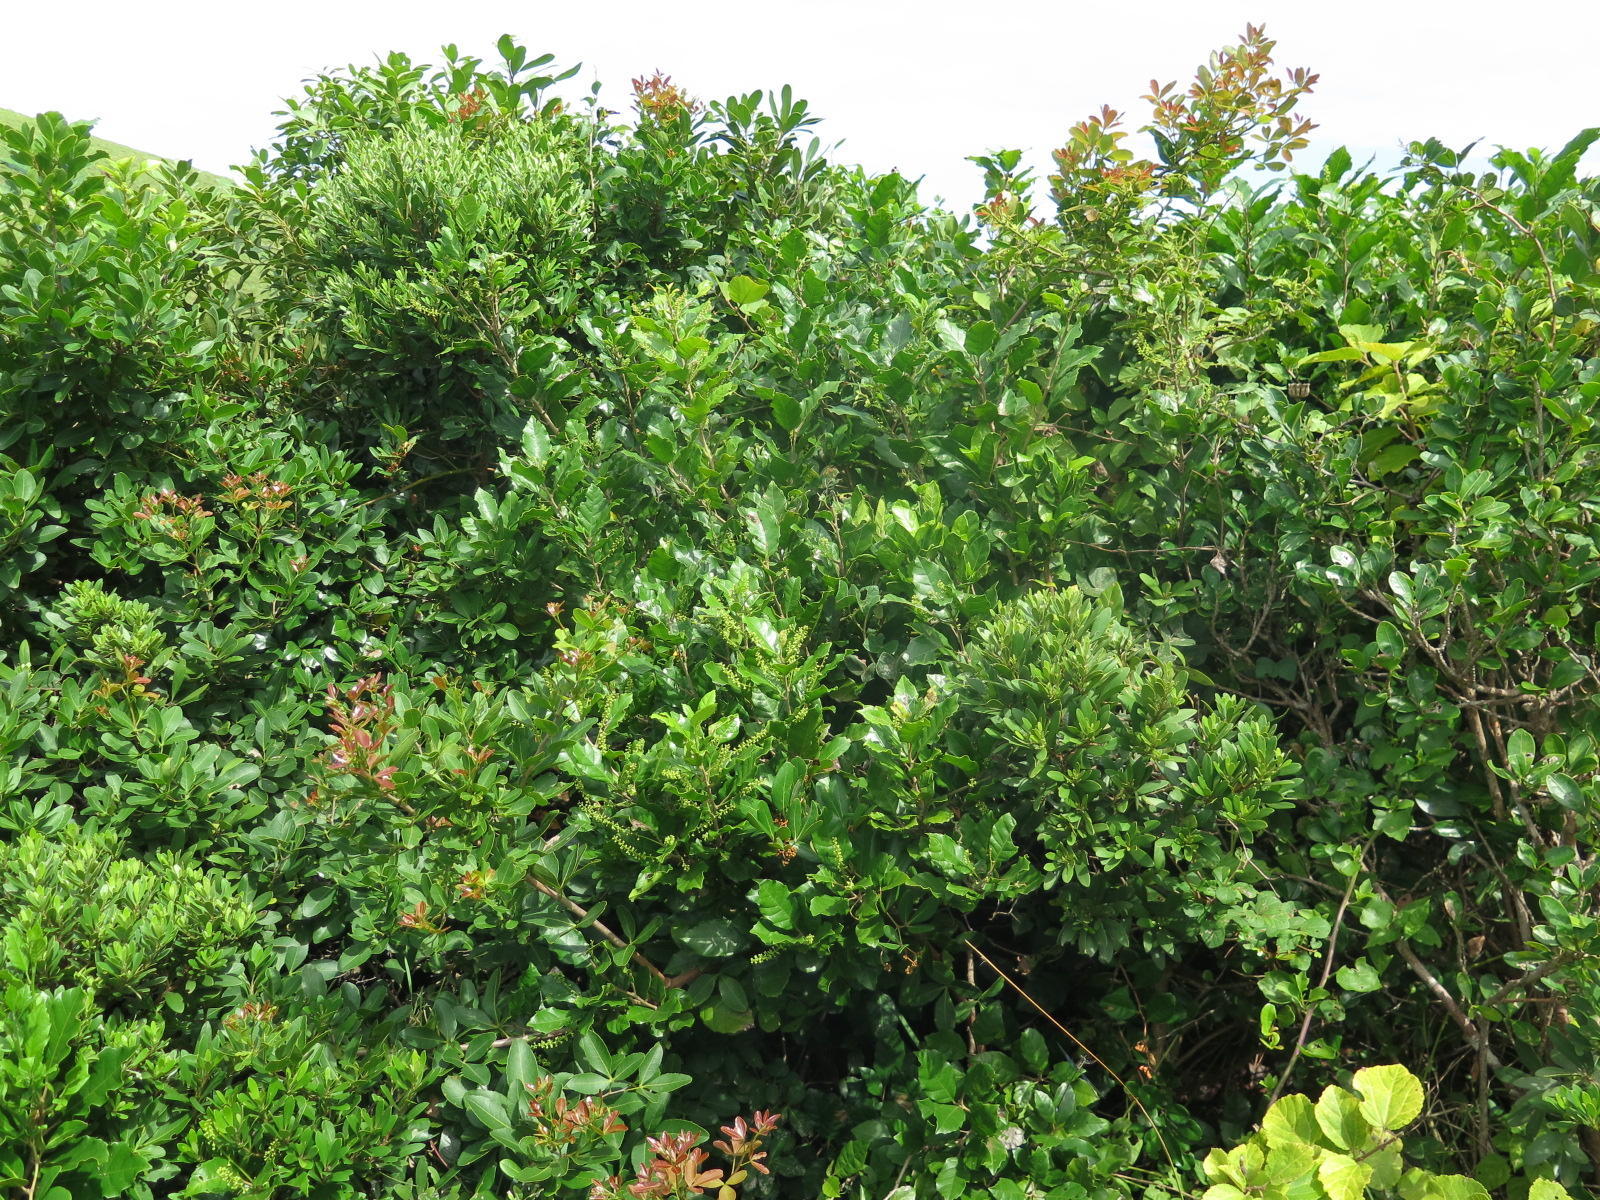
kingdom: Plantae
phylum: Tracheophyta
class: Magnoliopsida
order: Sapindales
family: Sapindaceae
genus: Allophylus
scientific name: Allophylus dregeanus
